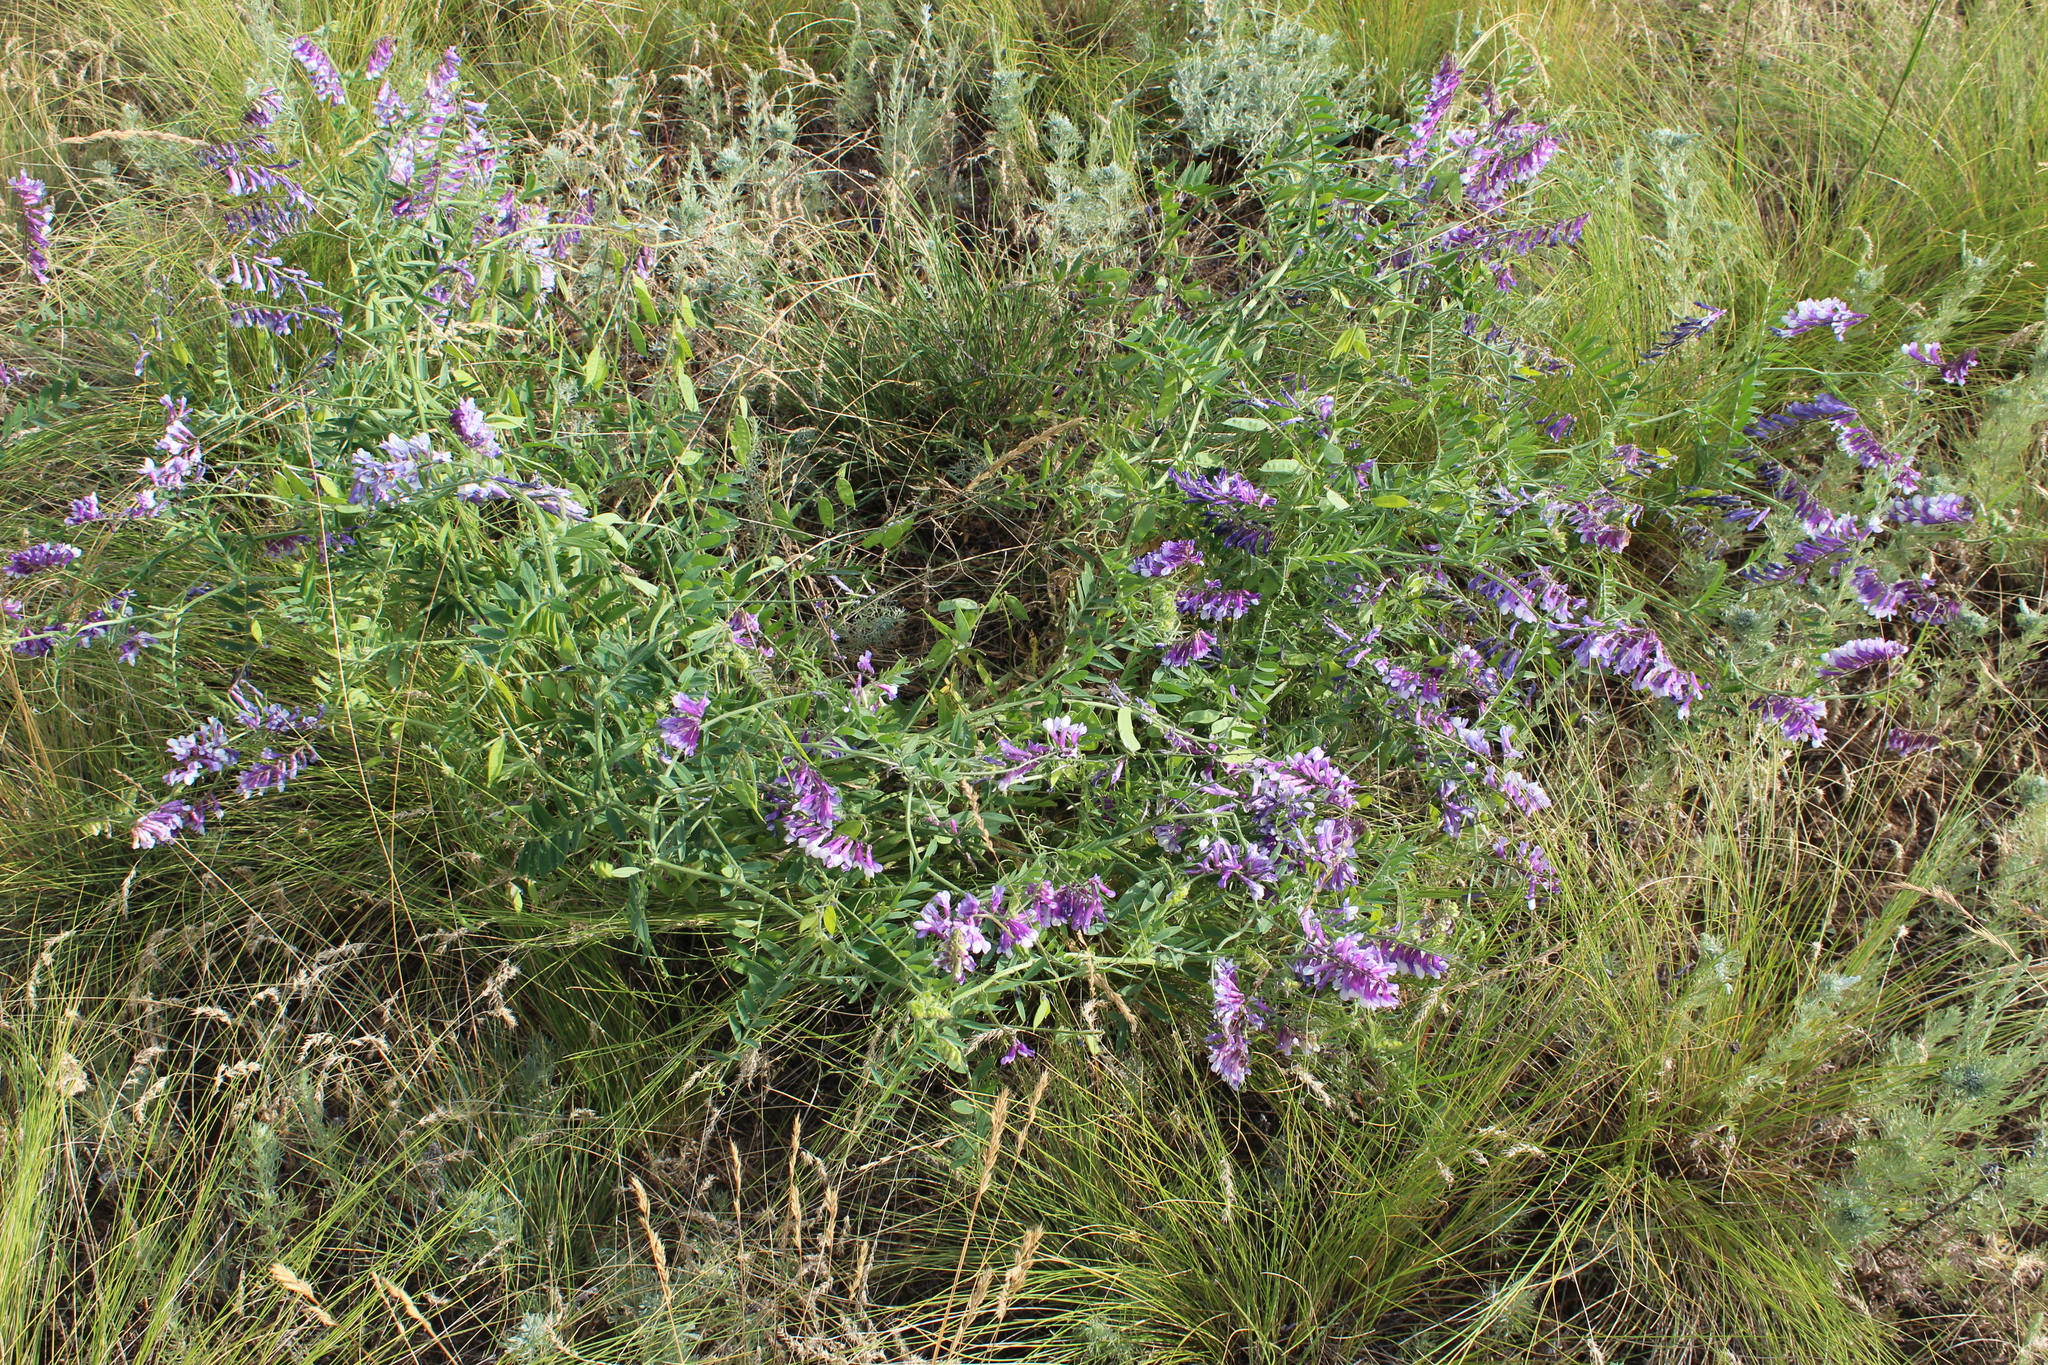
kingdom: Plantae
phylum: Tracheophyta
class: Magnoliopsida
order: Fabales
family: Fabaceae
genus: Vicia
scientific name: Vicia villosa
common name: Fodder vetch
